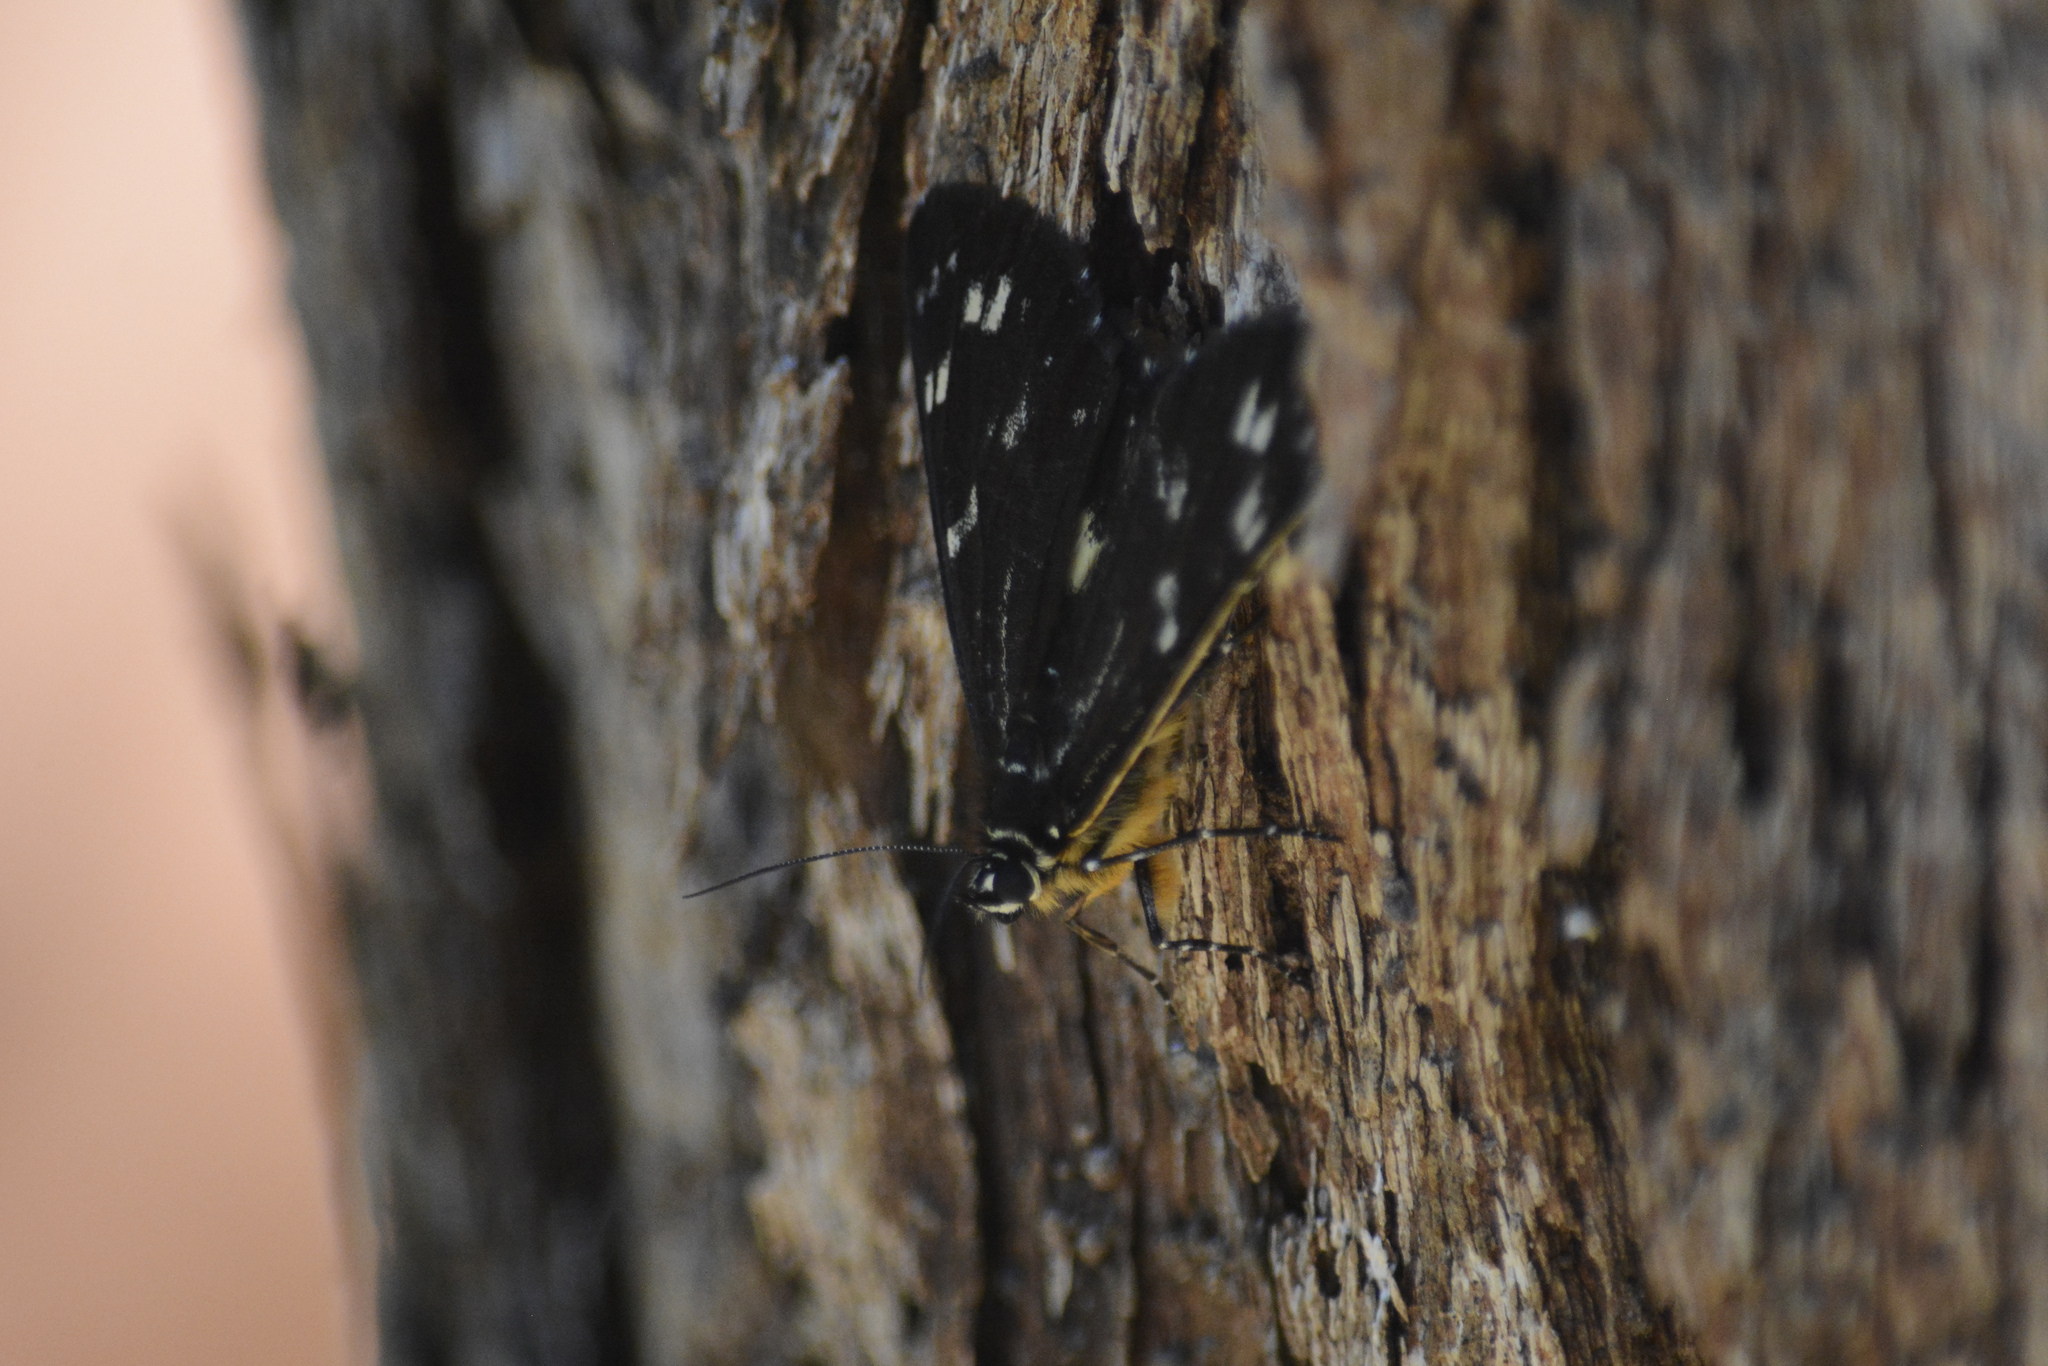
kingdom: Animalia
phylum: Arthropoda
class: Insecta
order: Lepidoptera
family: Noctuidae
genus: Cruria
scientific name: Cruria synopla
